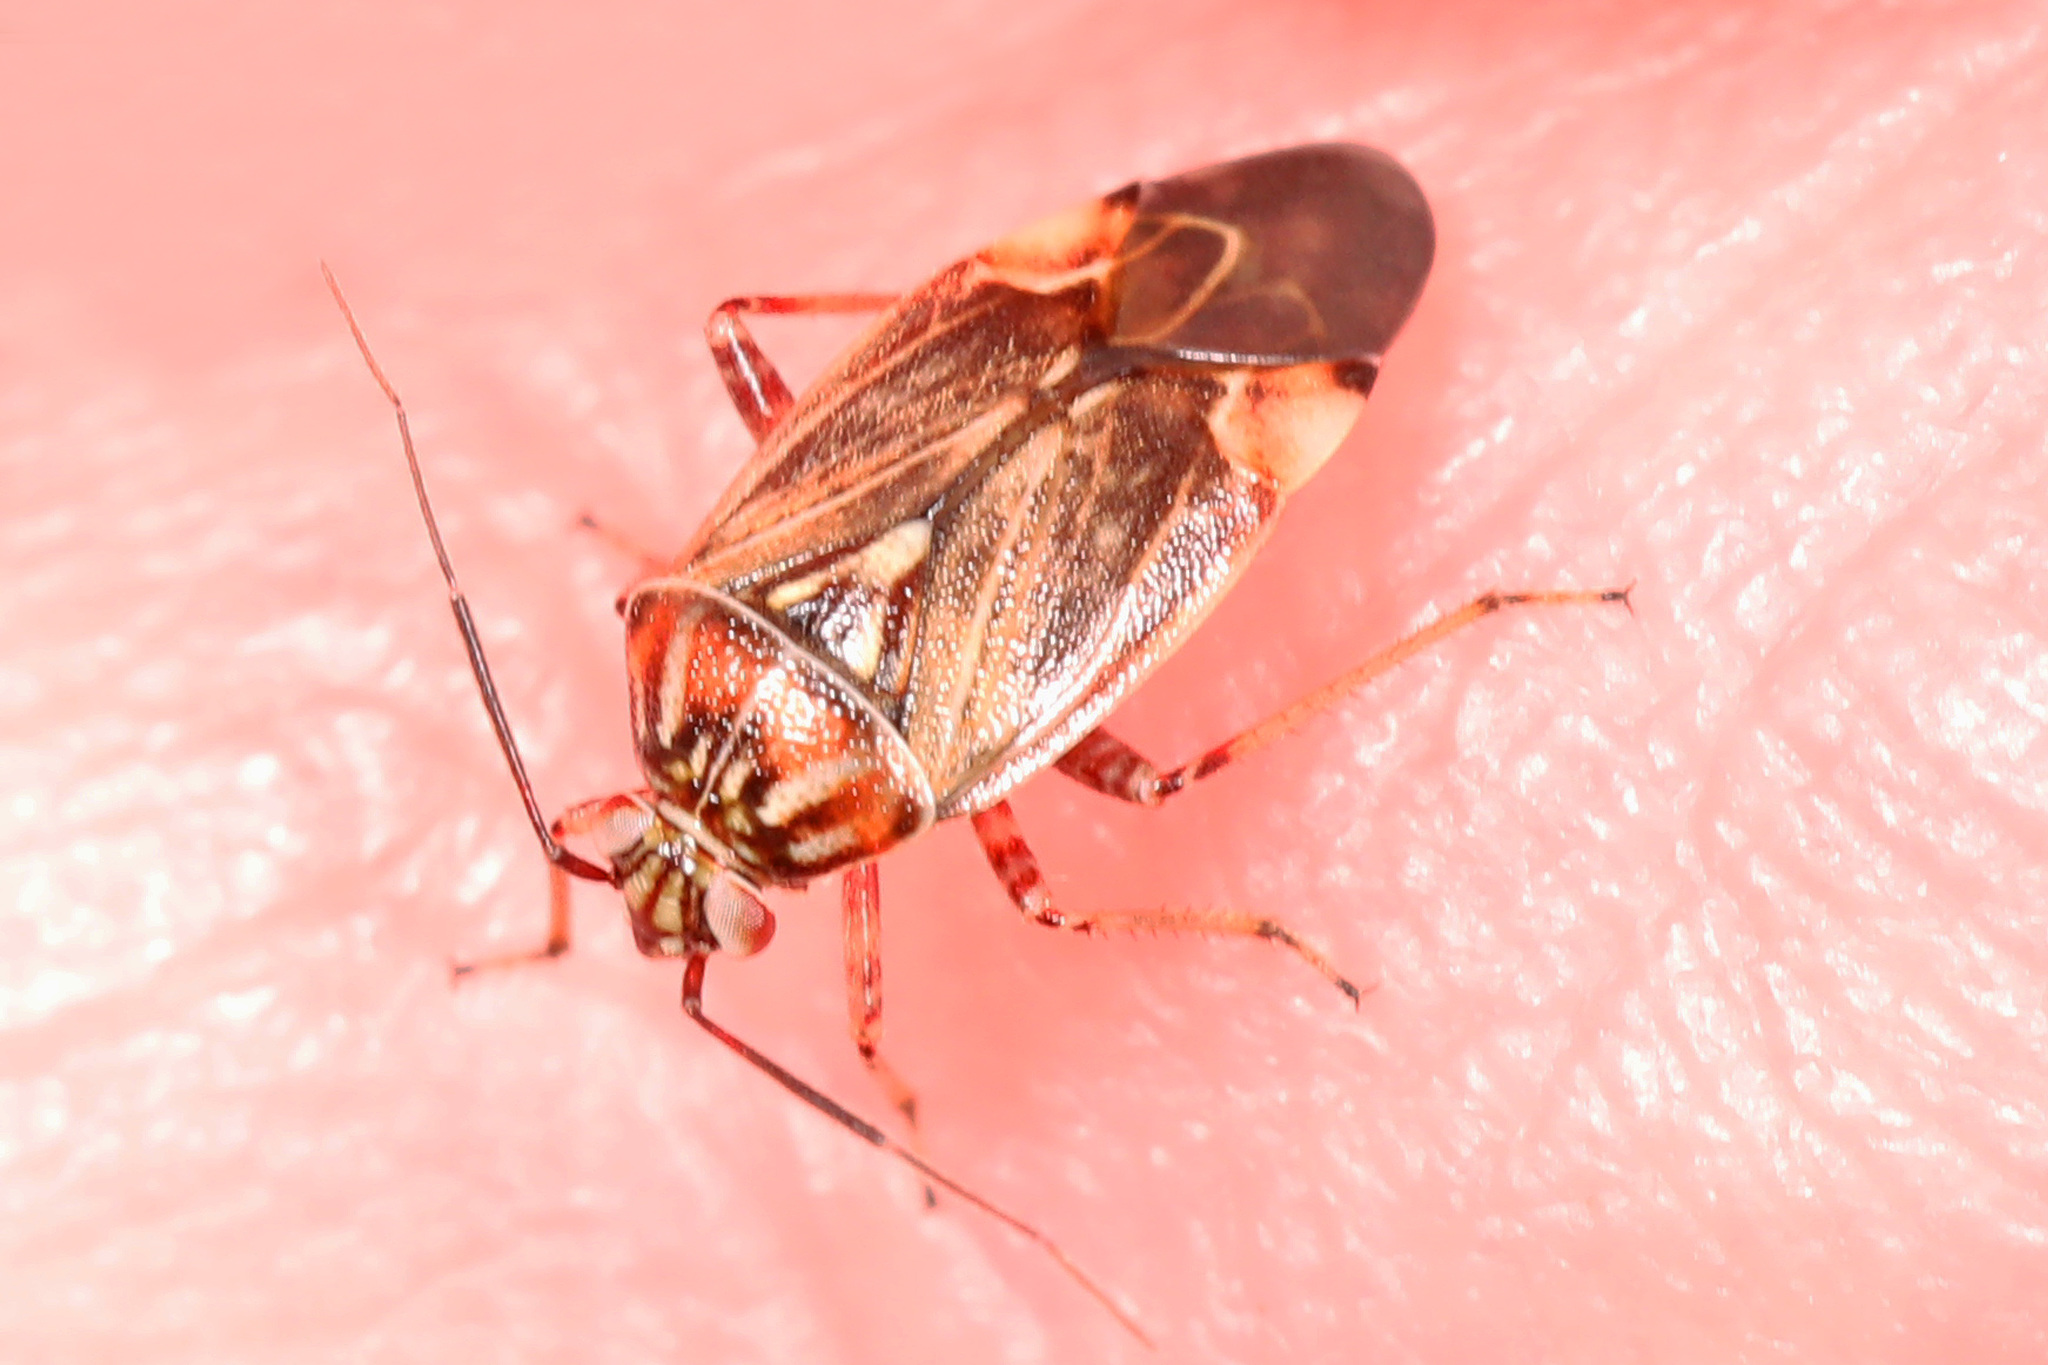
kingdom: Animalia
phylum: Arthropoda
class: Insecta
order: Hemiptera
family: Miridae
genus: Lygus
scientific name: Lygus lineolaris
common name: North american tarnished plant bug
